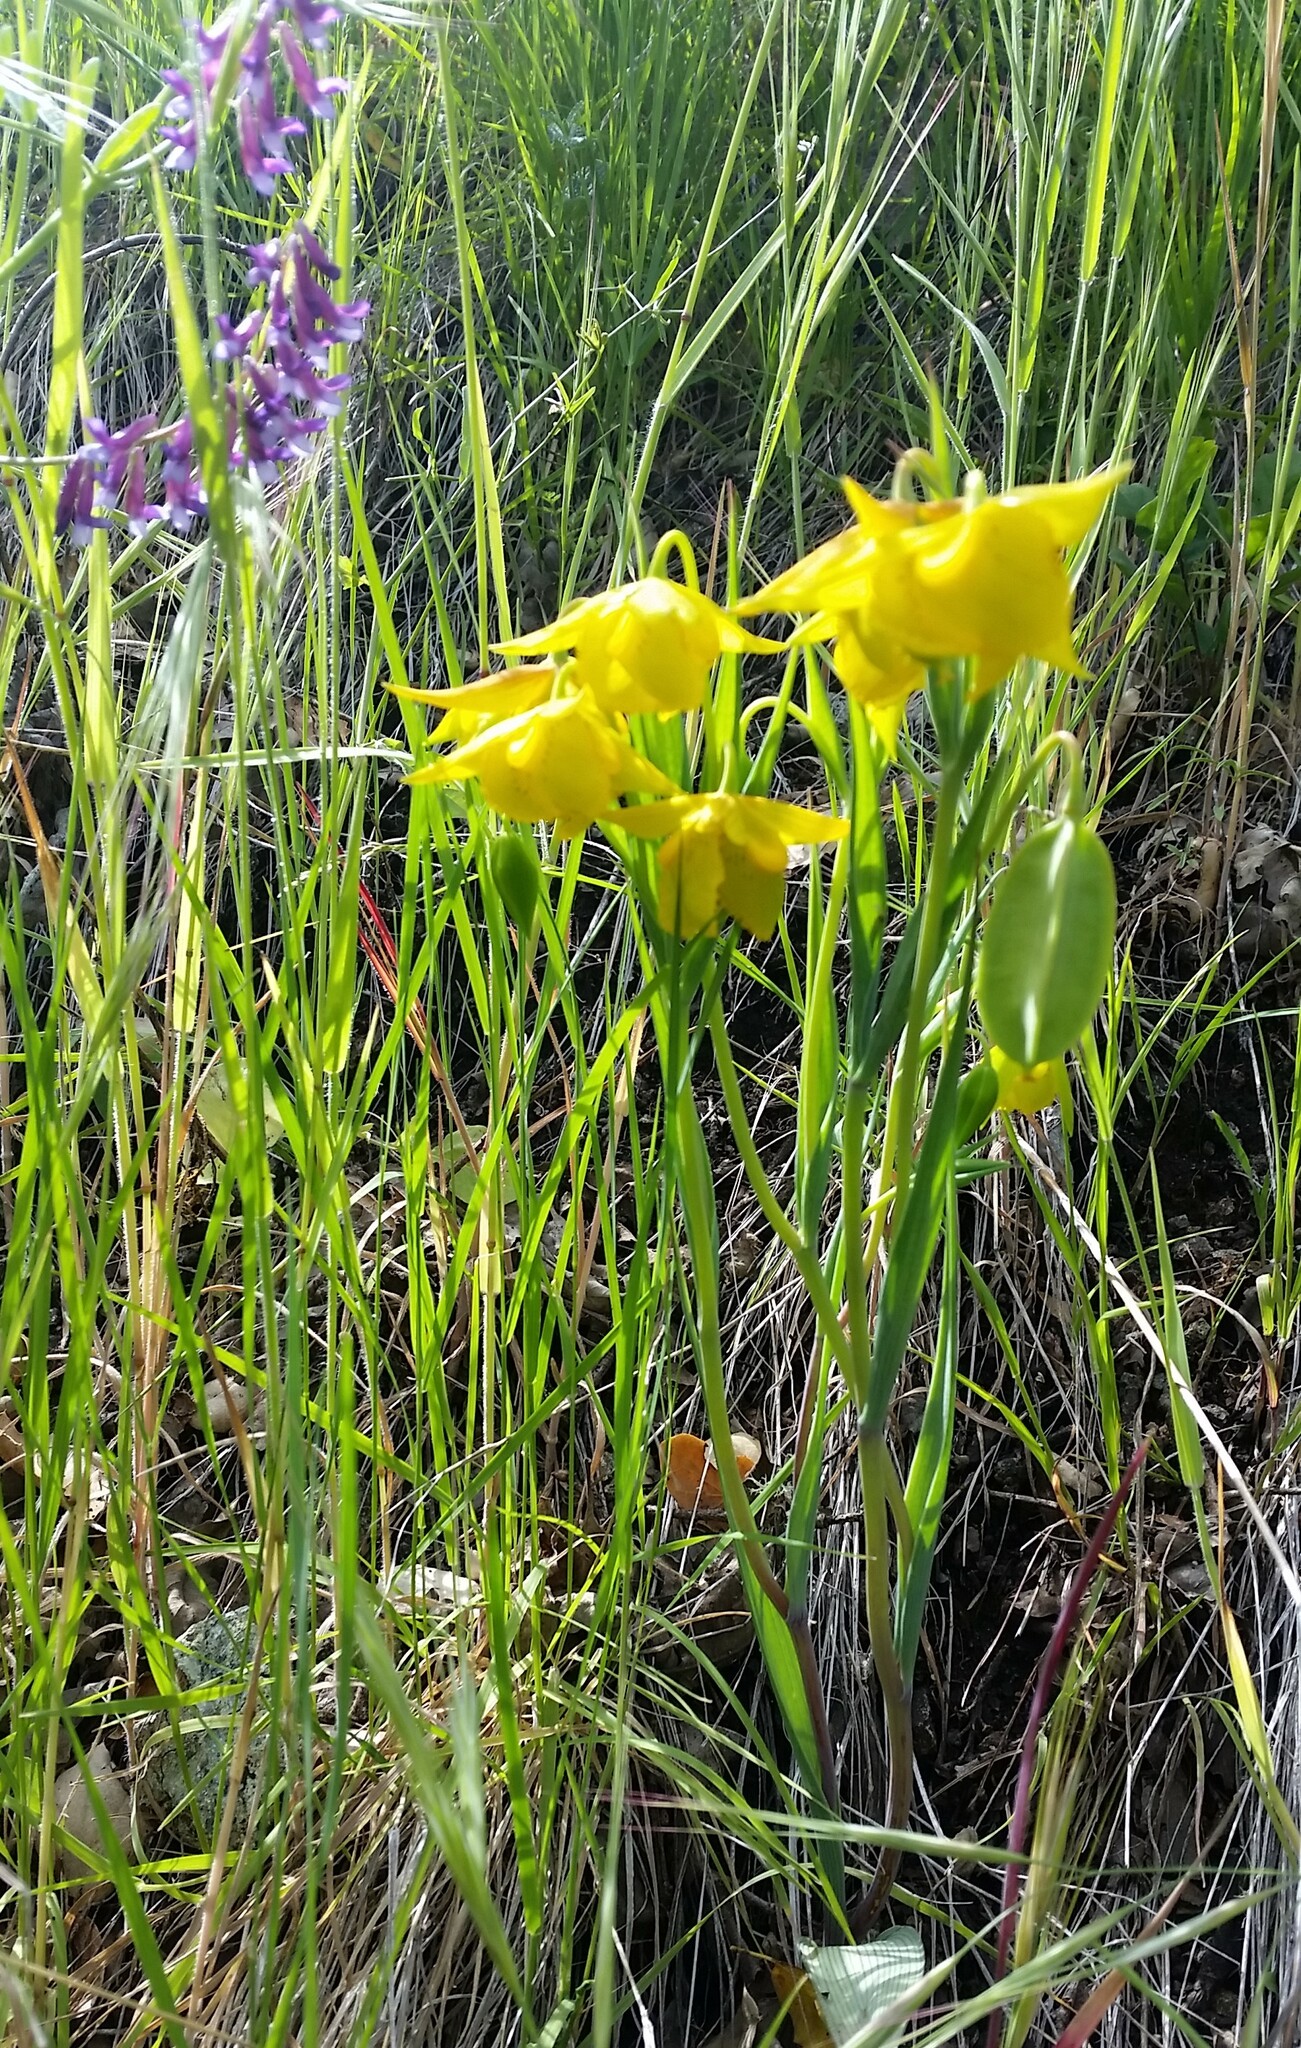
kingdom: Plantae
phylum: Tracheophyta
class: Liliopsida
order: Liliales
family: Liliaceae
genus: Calochortus
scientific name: Calochortus amabilis
